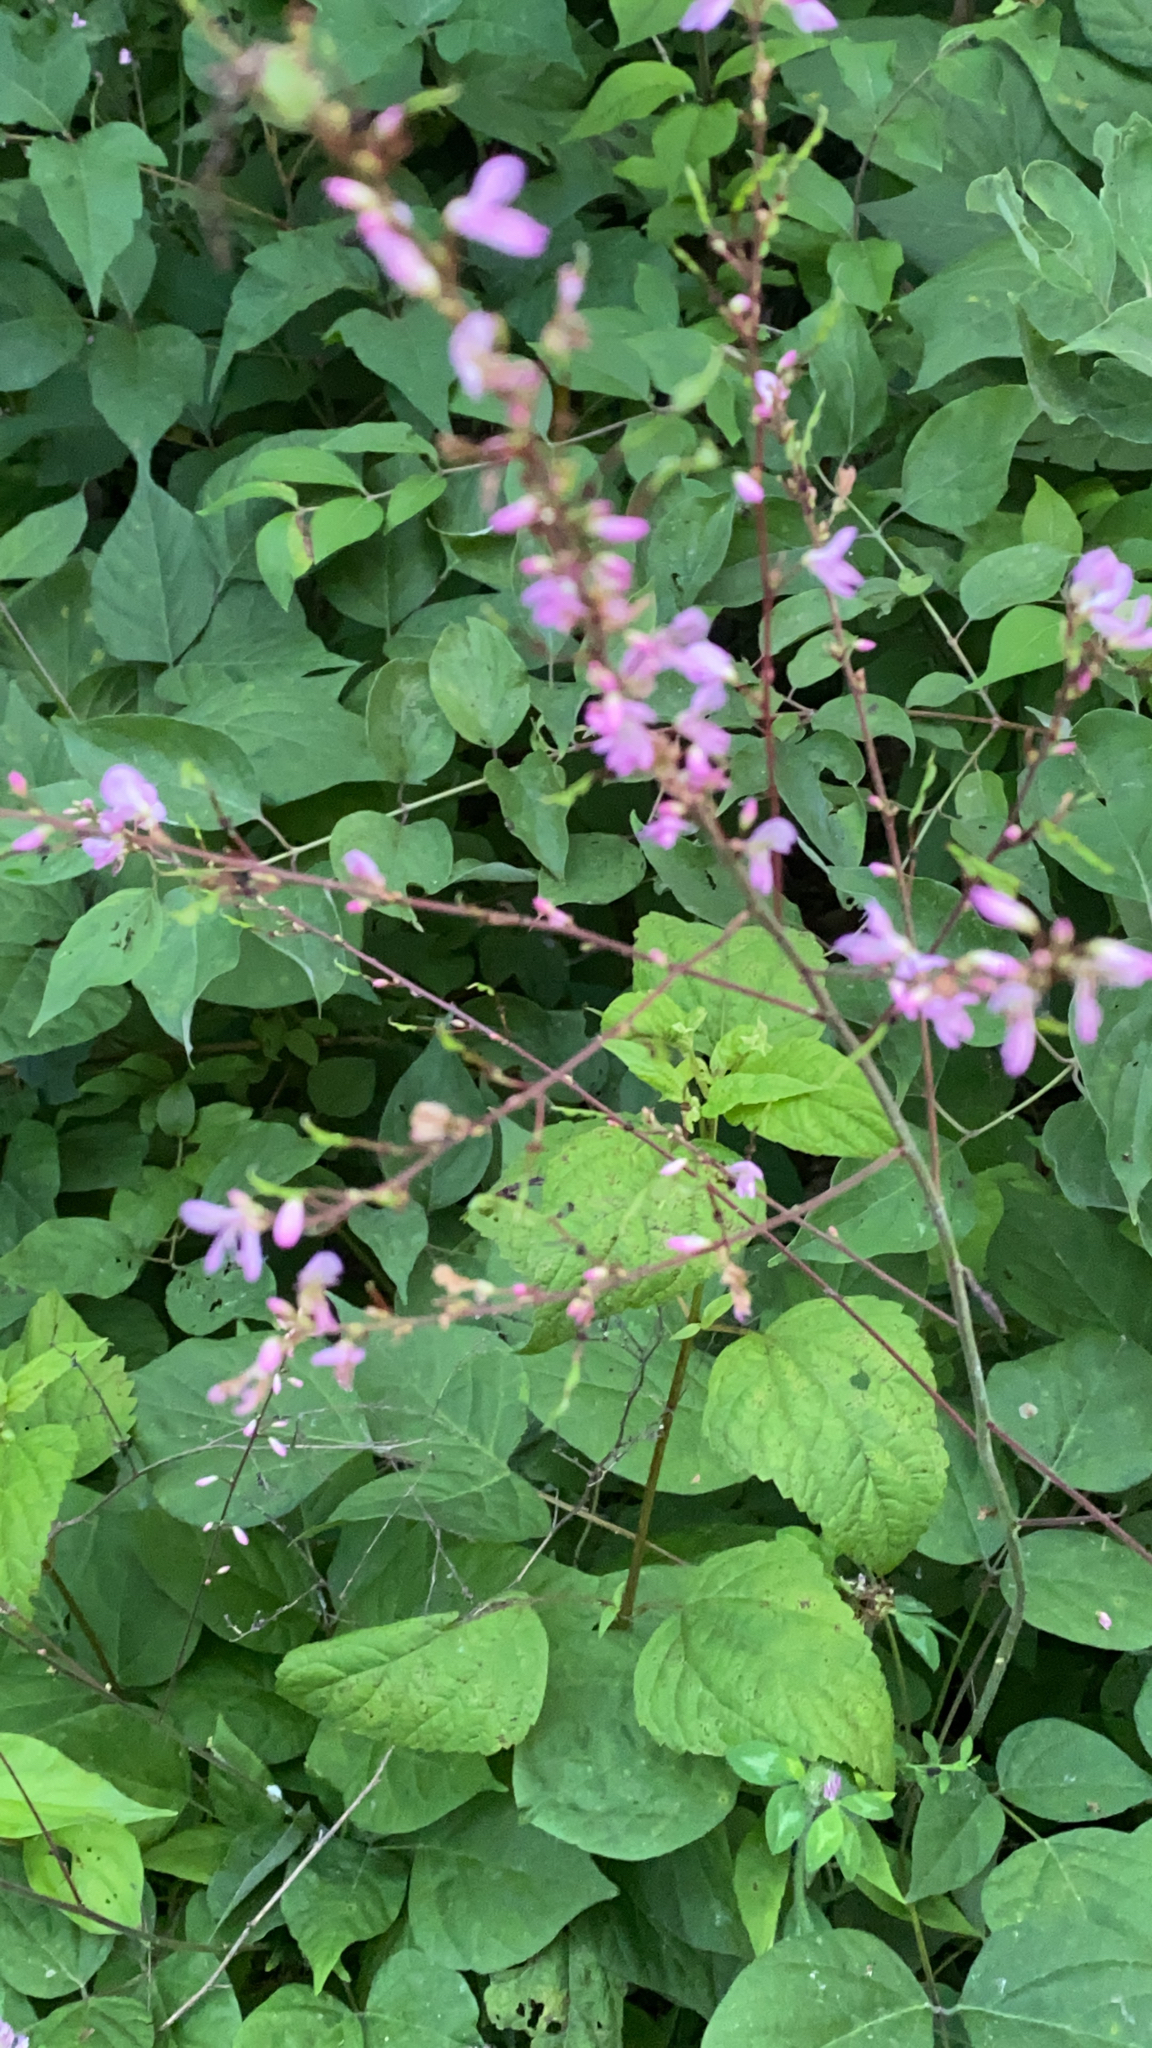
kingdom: Plantae
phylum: Tracheophyta
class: Magnoliopsida
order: Fabales
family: Fabaceae
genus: Hylodesmum
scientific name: Hylodesmum glutinosum
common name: Clustered-leaved tick-trefoil
